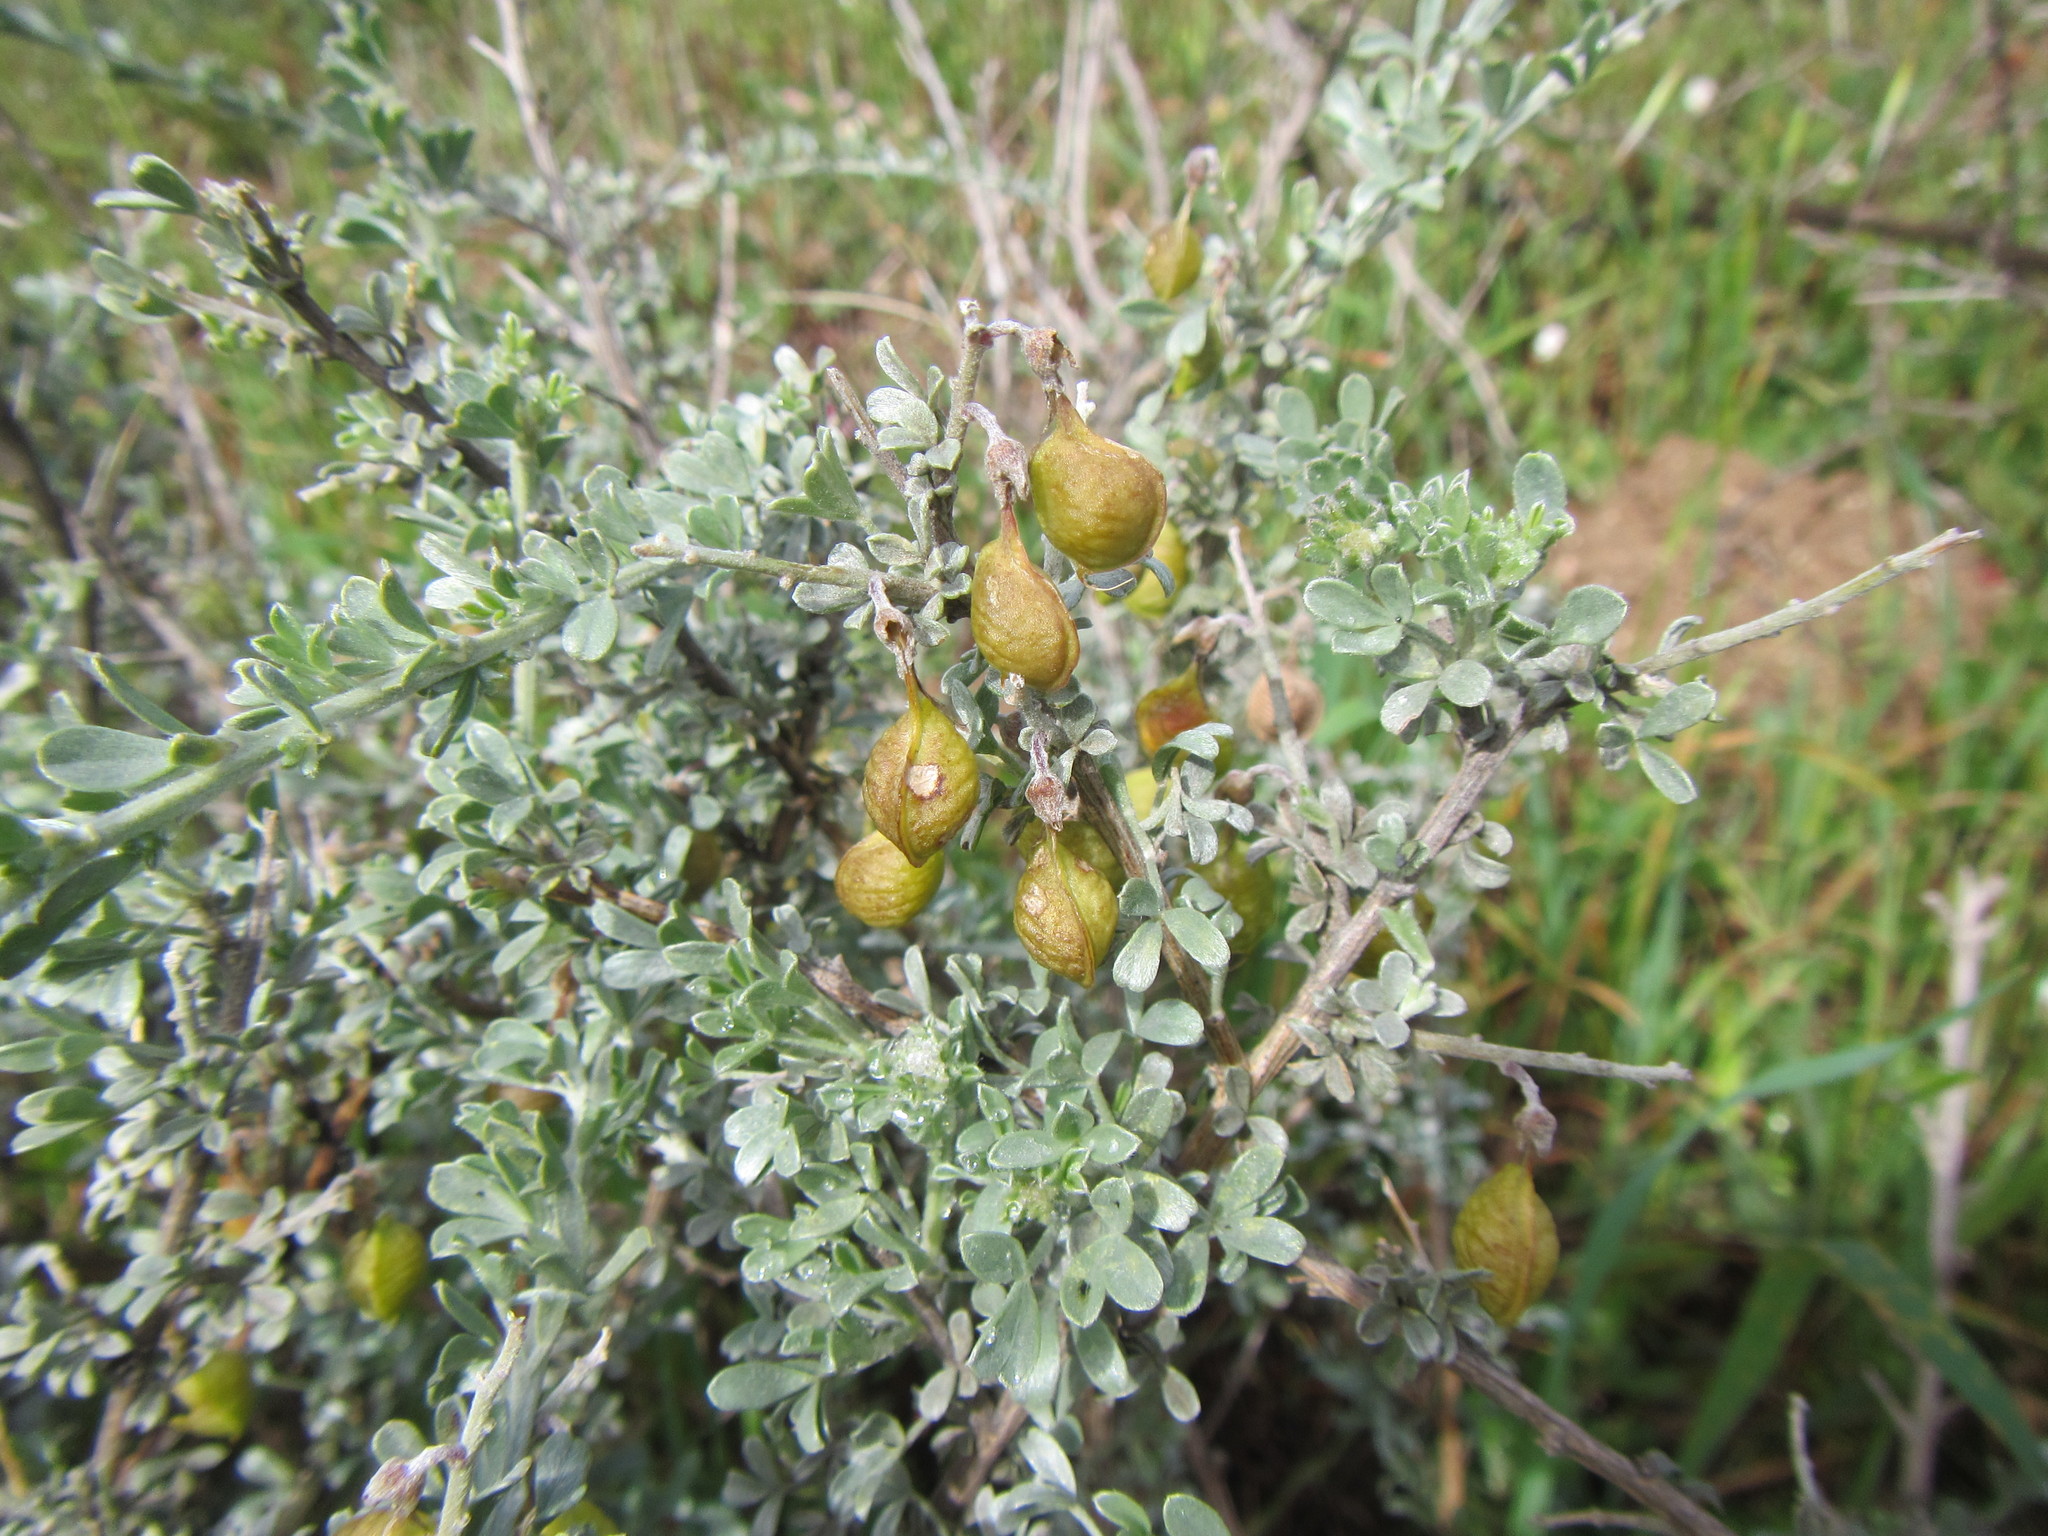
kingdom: Plantae
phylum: Tracheophyta
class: Magnoliopsida
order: Fabales
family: Fabaceae
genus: Wiborgia
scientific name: Wiborgia fusca
